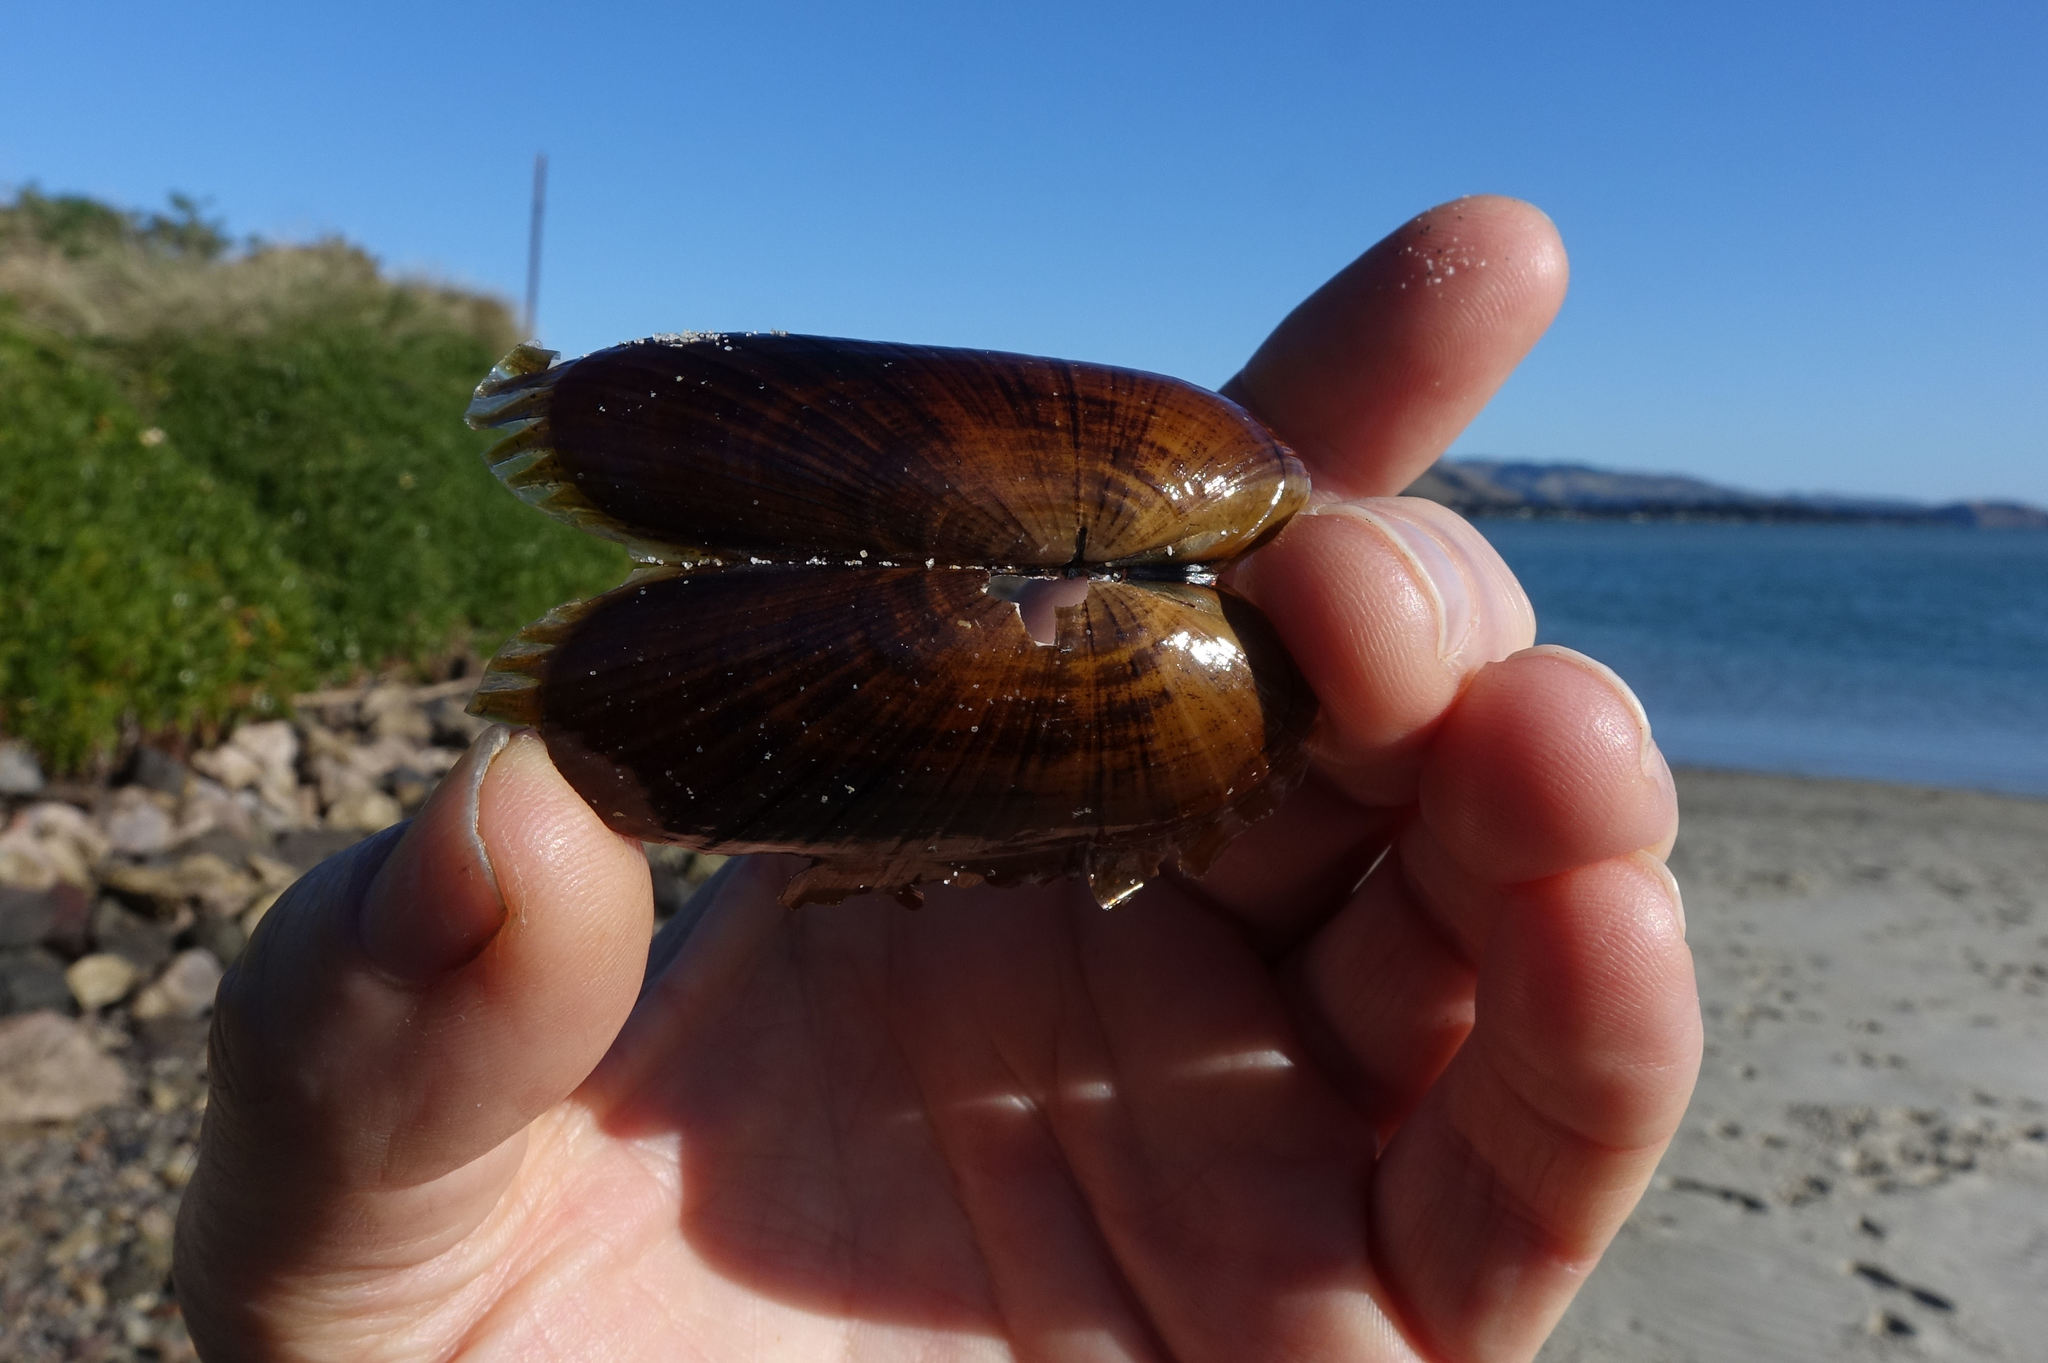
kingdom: Animalia
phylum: Mollusca
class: Bivalvia
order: Solemyida
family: Solemyidae
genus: Solemya
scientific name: Solemya parkinsonii
